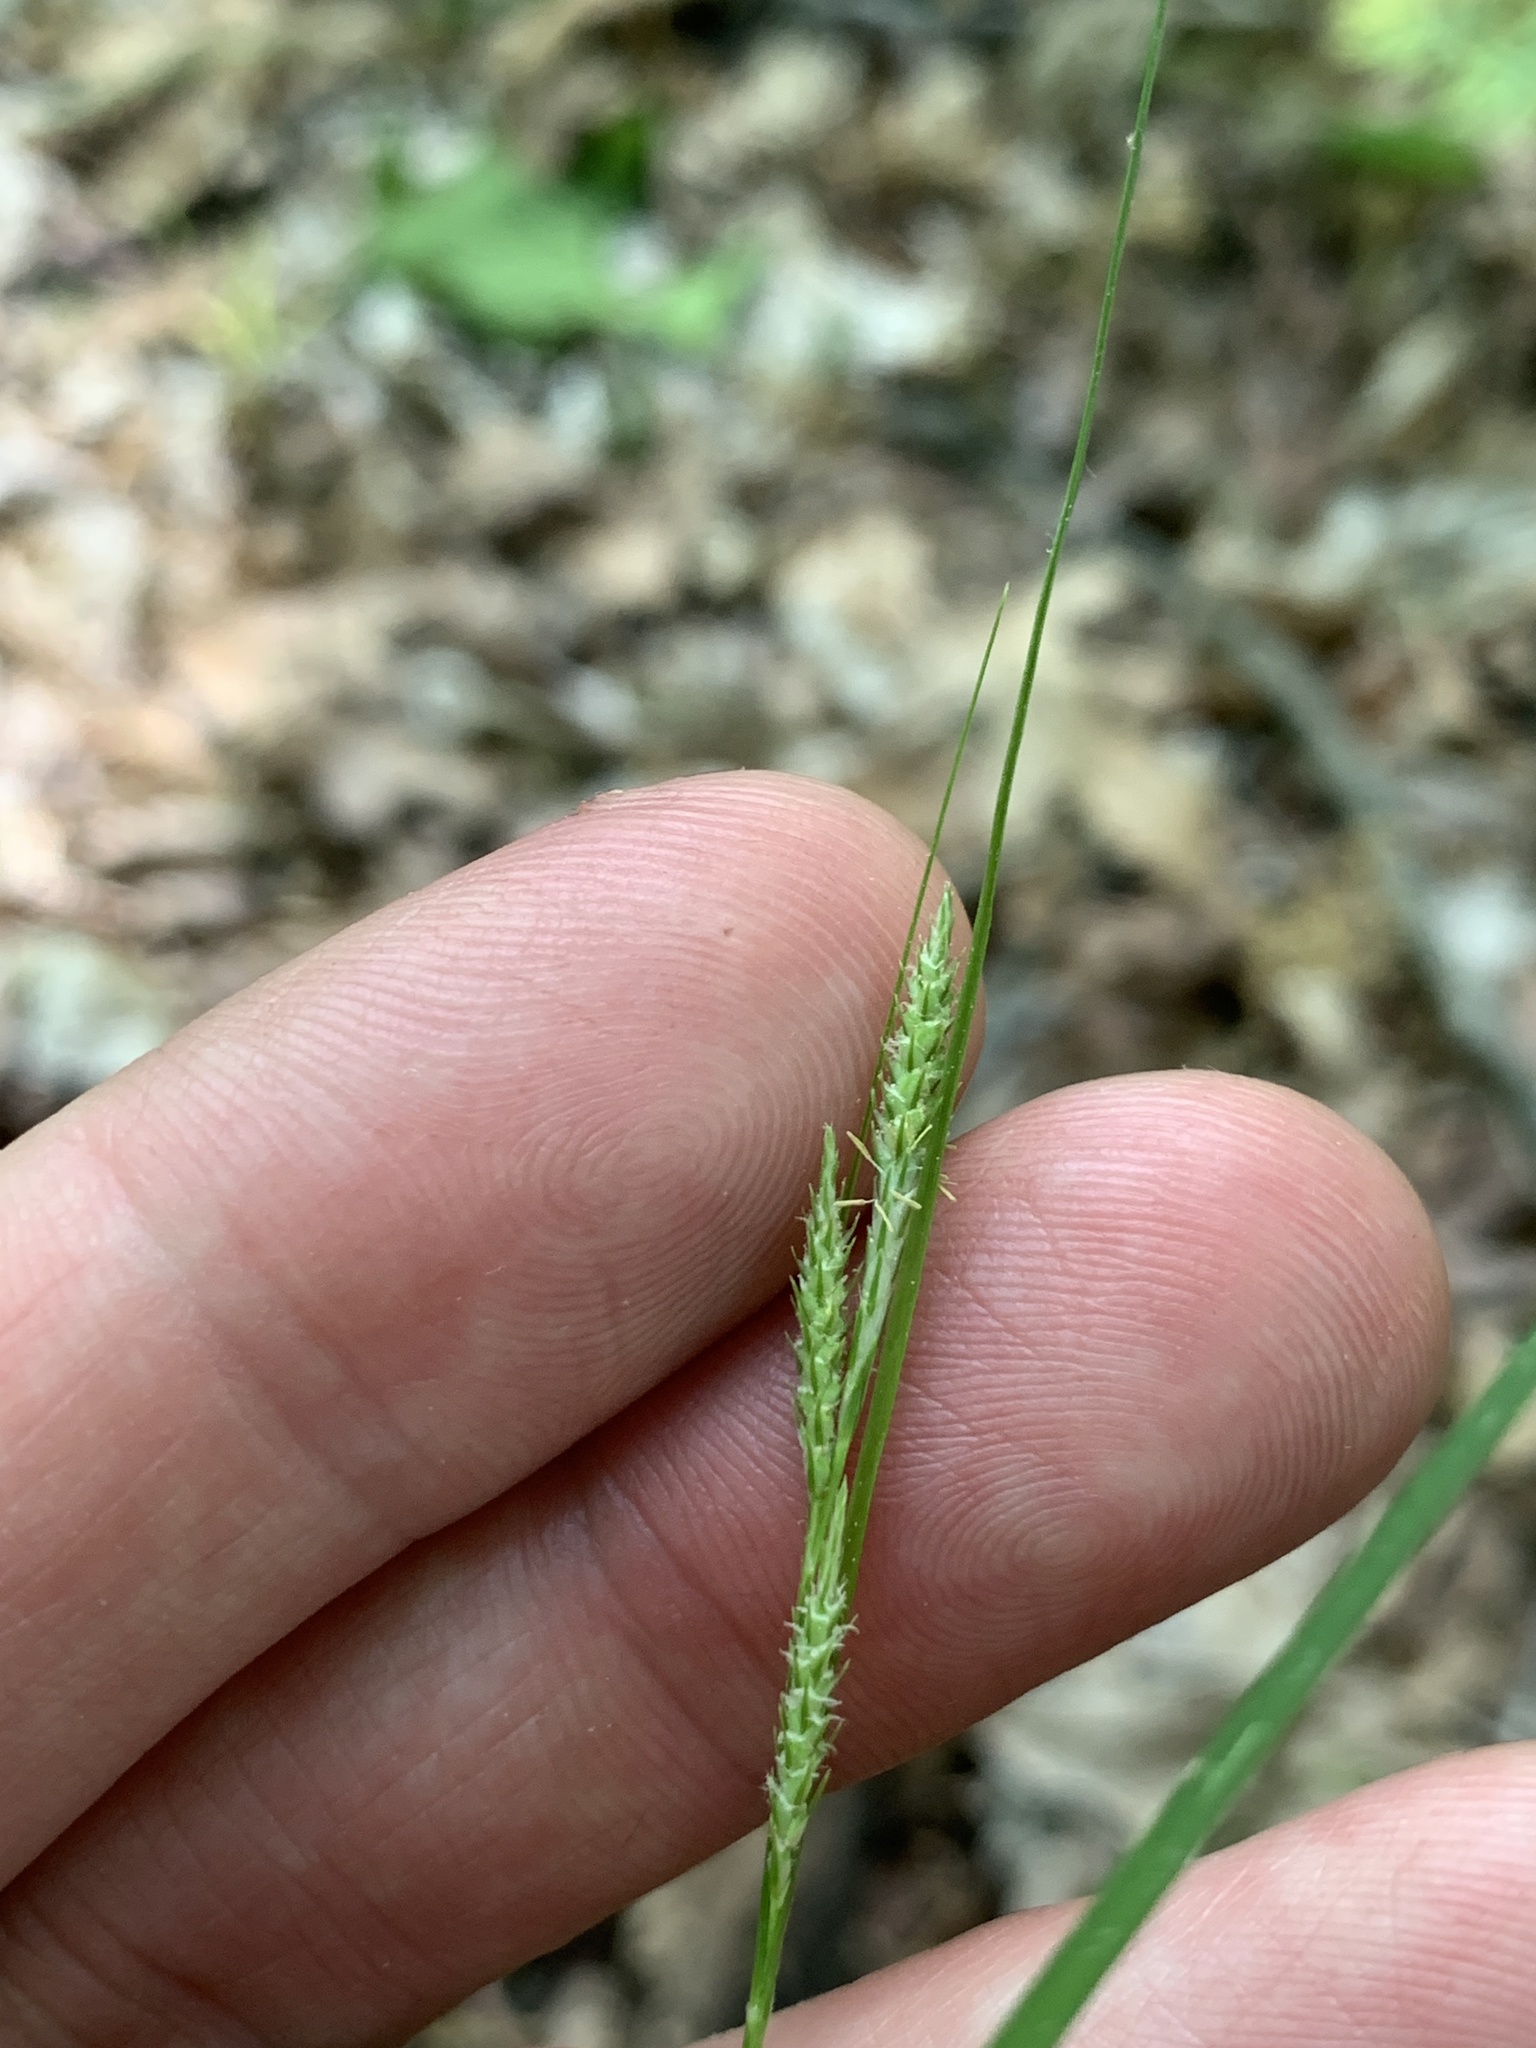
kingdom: Plantae
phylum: Tracheophyta
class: Liliopsida
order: Poales
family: Cyperaceae
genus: Carex
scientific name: Carex swanii
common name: Downy green sedge
